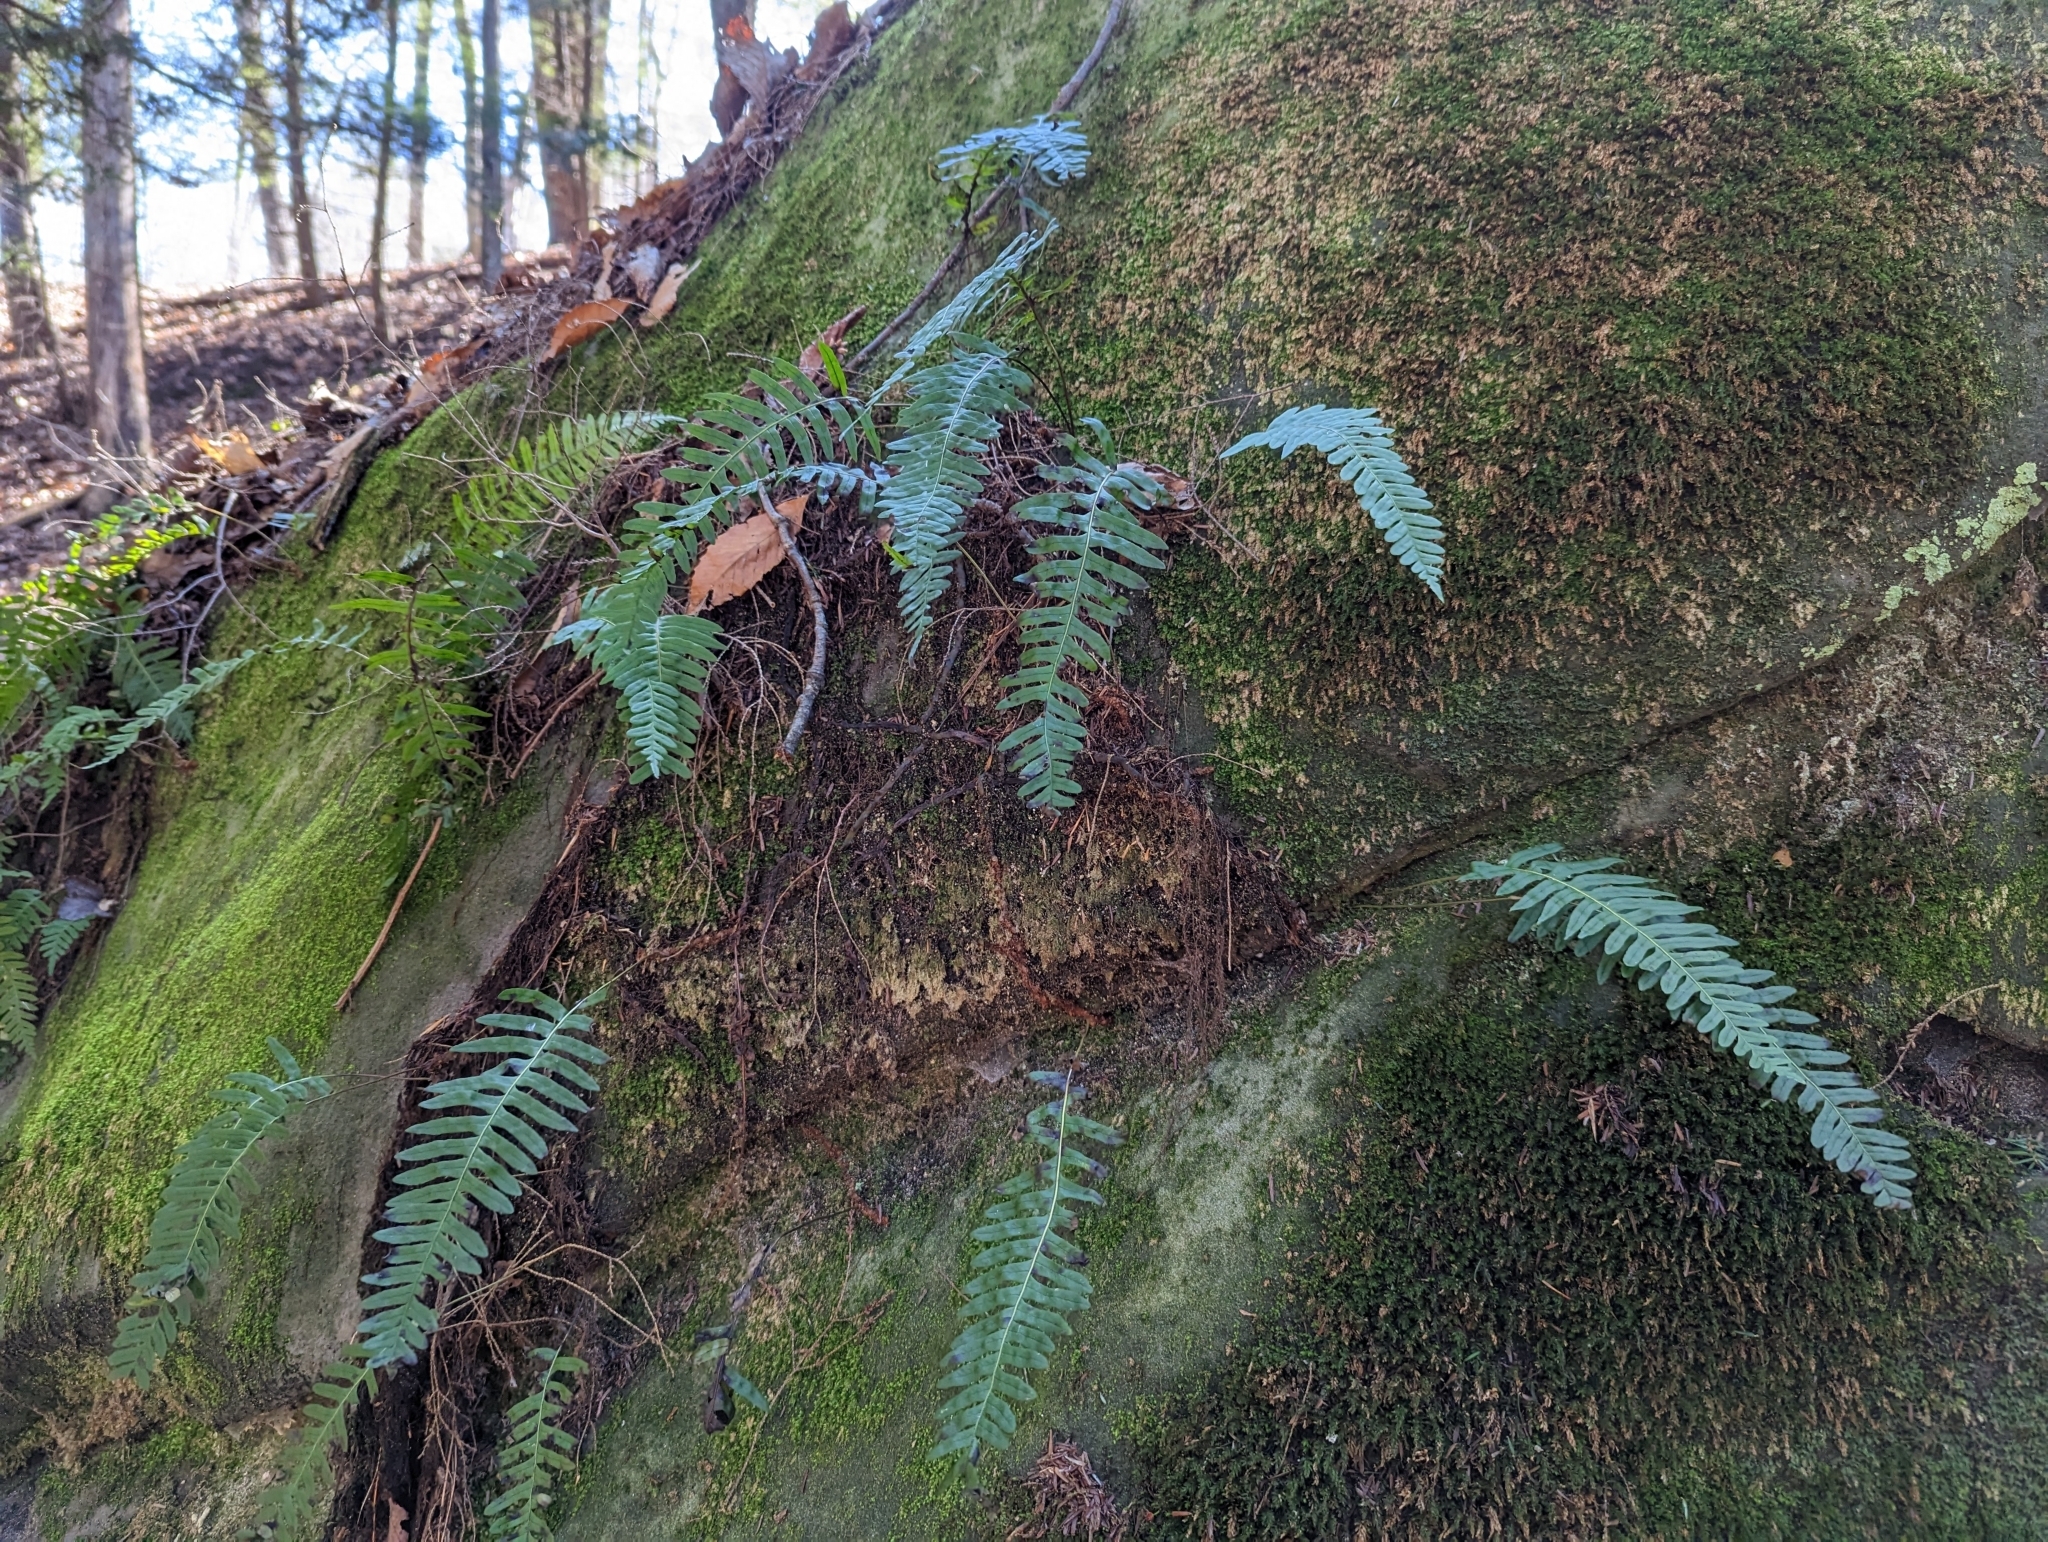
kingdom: Plantae
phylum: Tracheophyta
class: Polypodiopsida
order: Polypodiales
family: Polypodiaceae
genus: Polypodium
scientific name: Polypodium appalachianum
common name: Appalachian polypody
